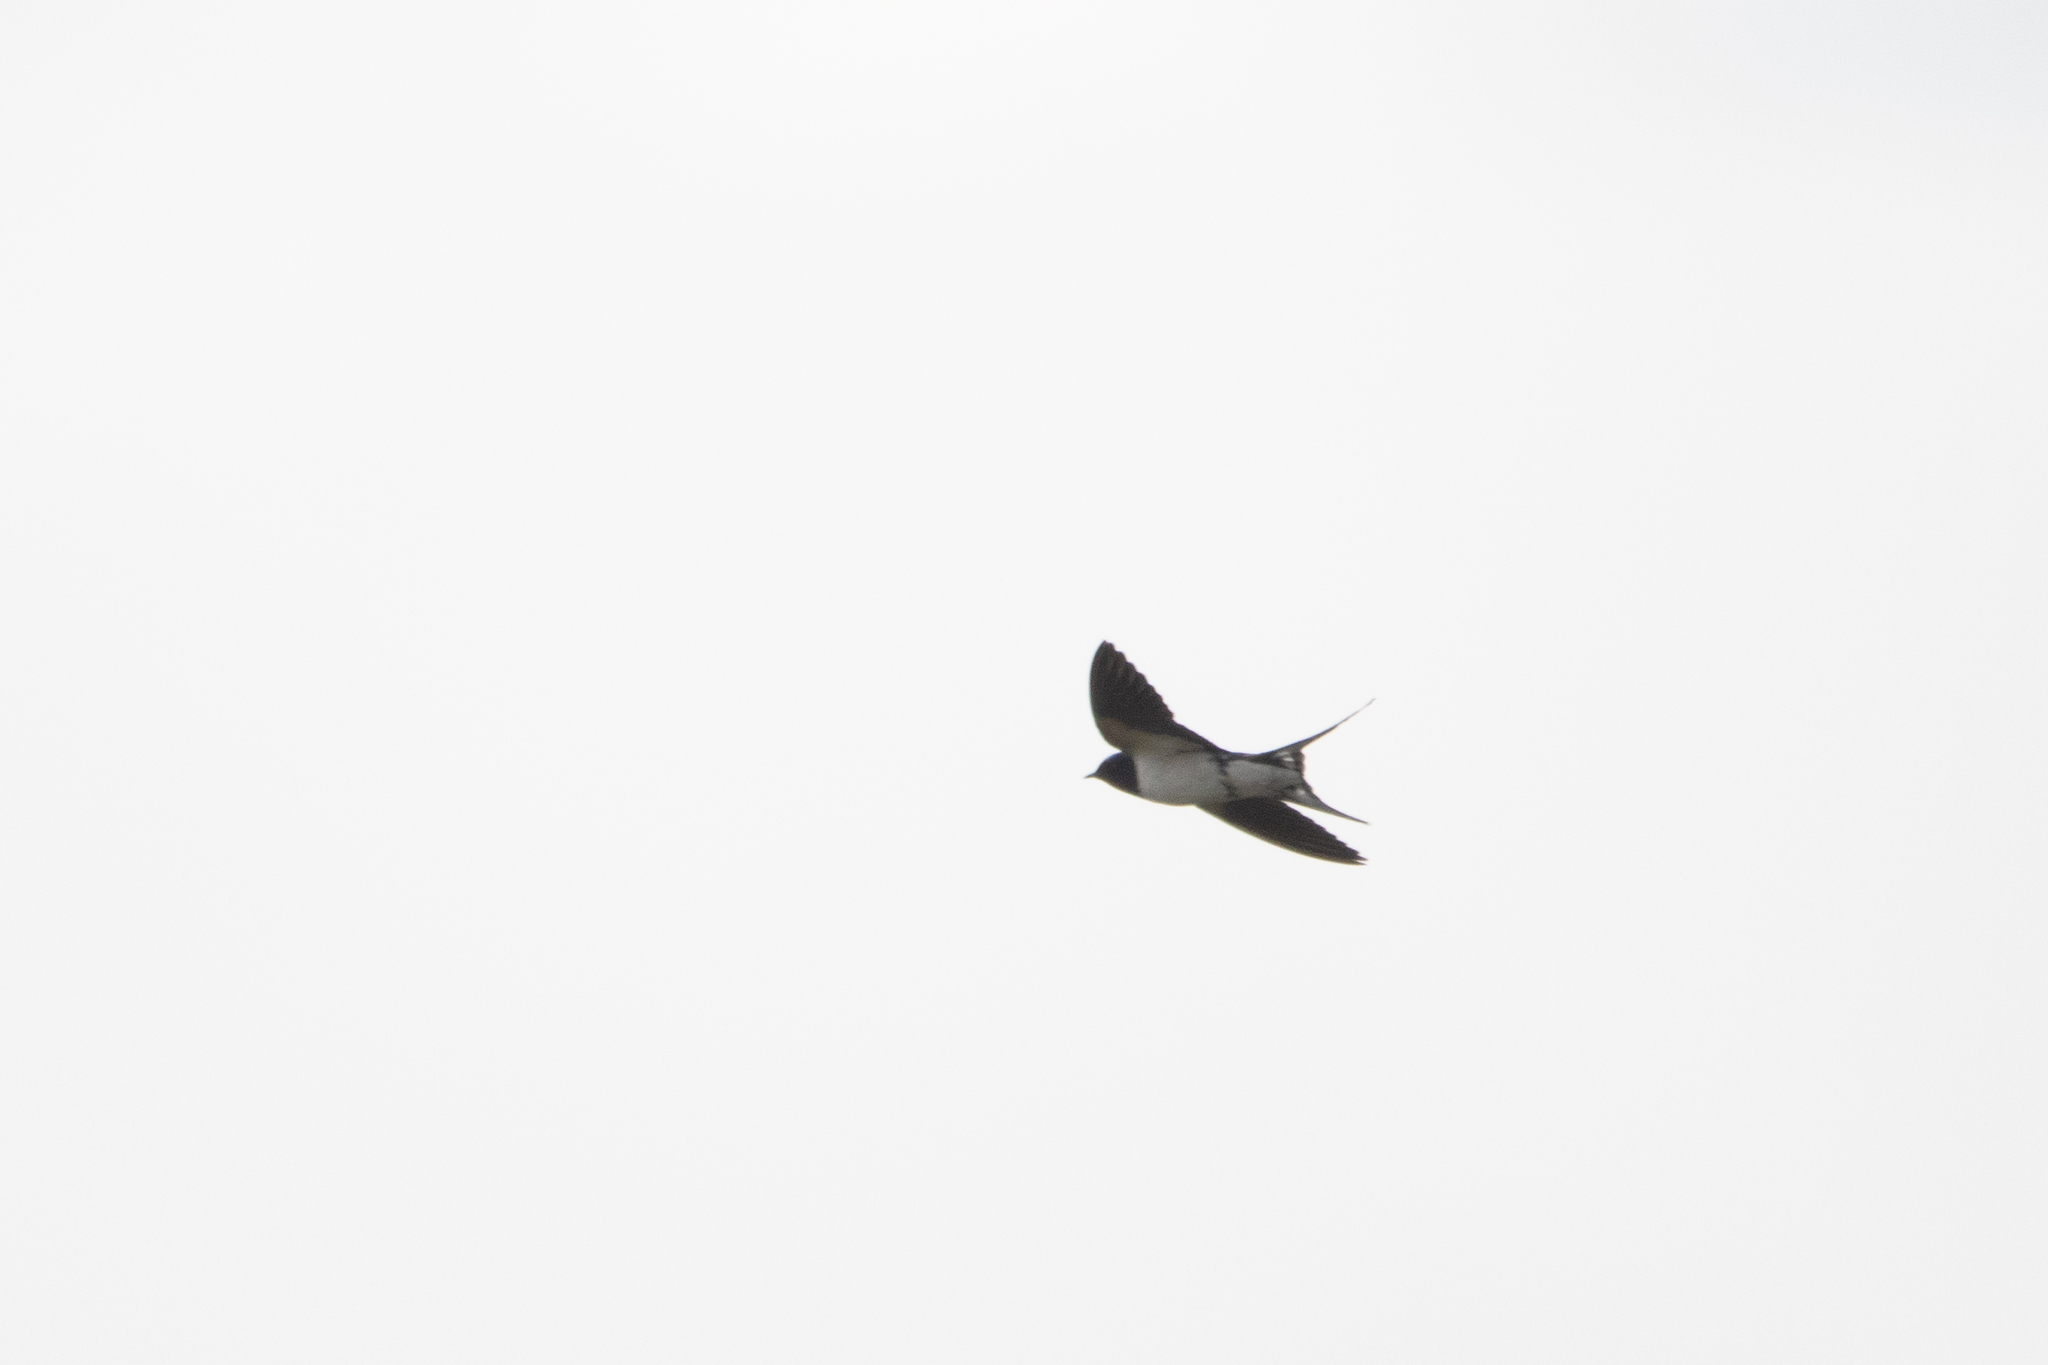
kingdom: Animalia
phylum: Chordata
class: Aves
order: Passeriformes
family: Hirundinidae
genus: Hirundo
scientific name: Hirundo rustica
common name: Barn swallow
